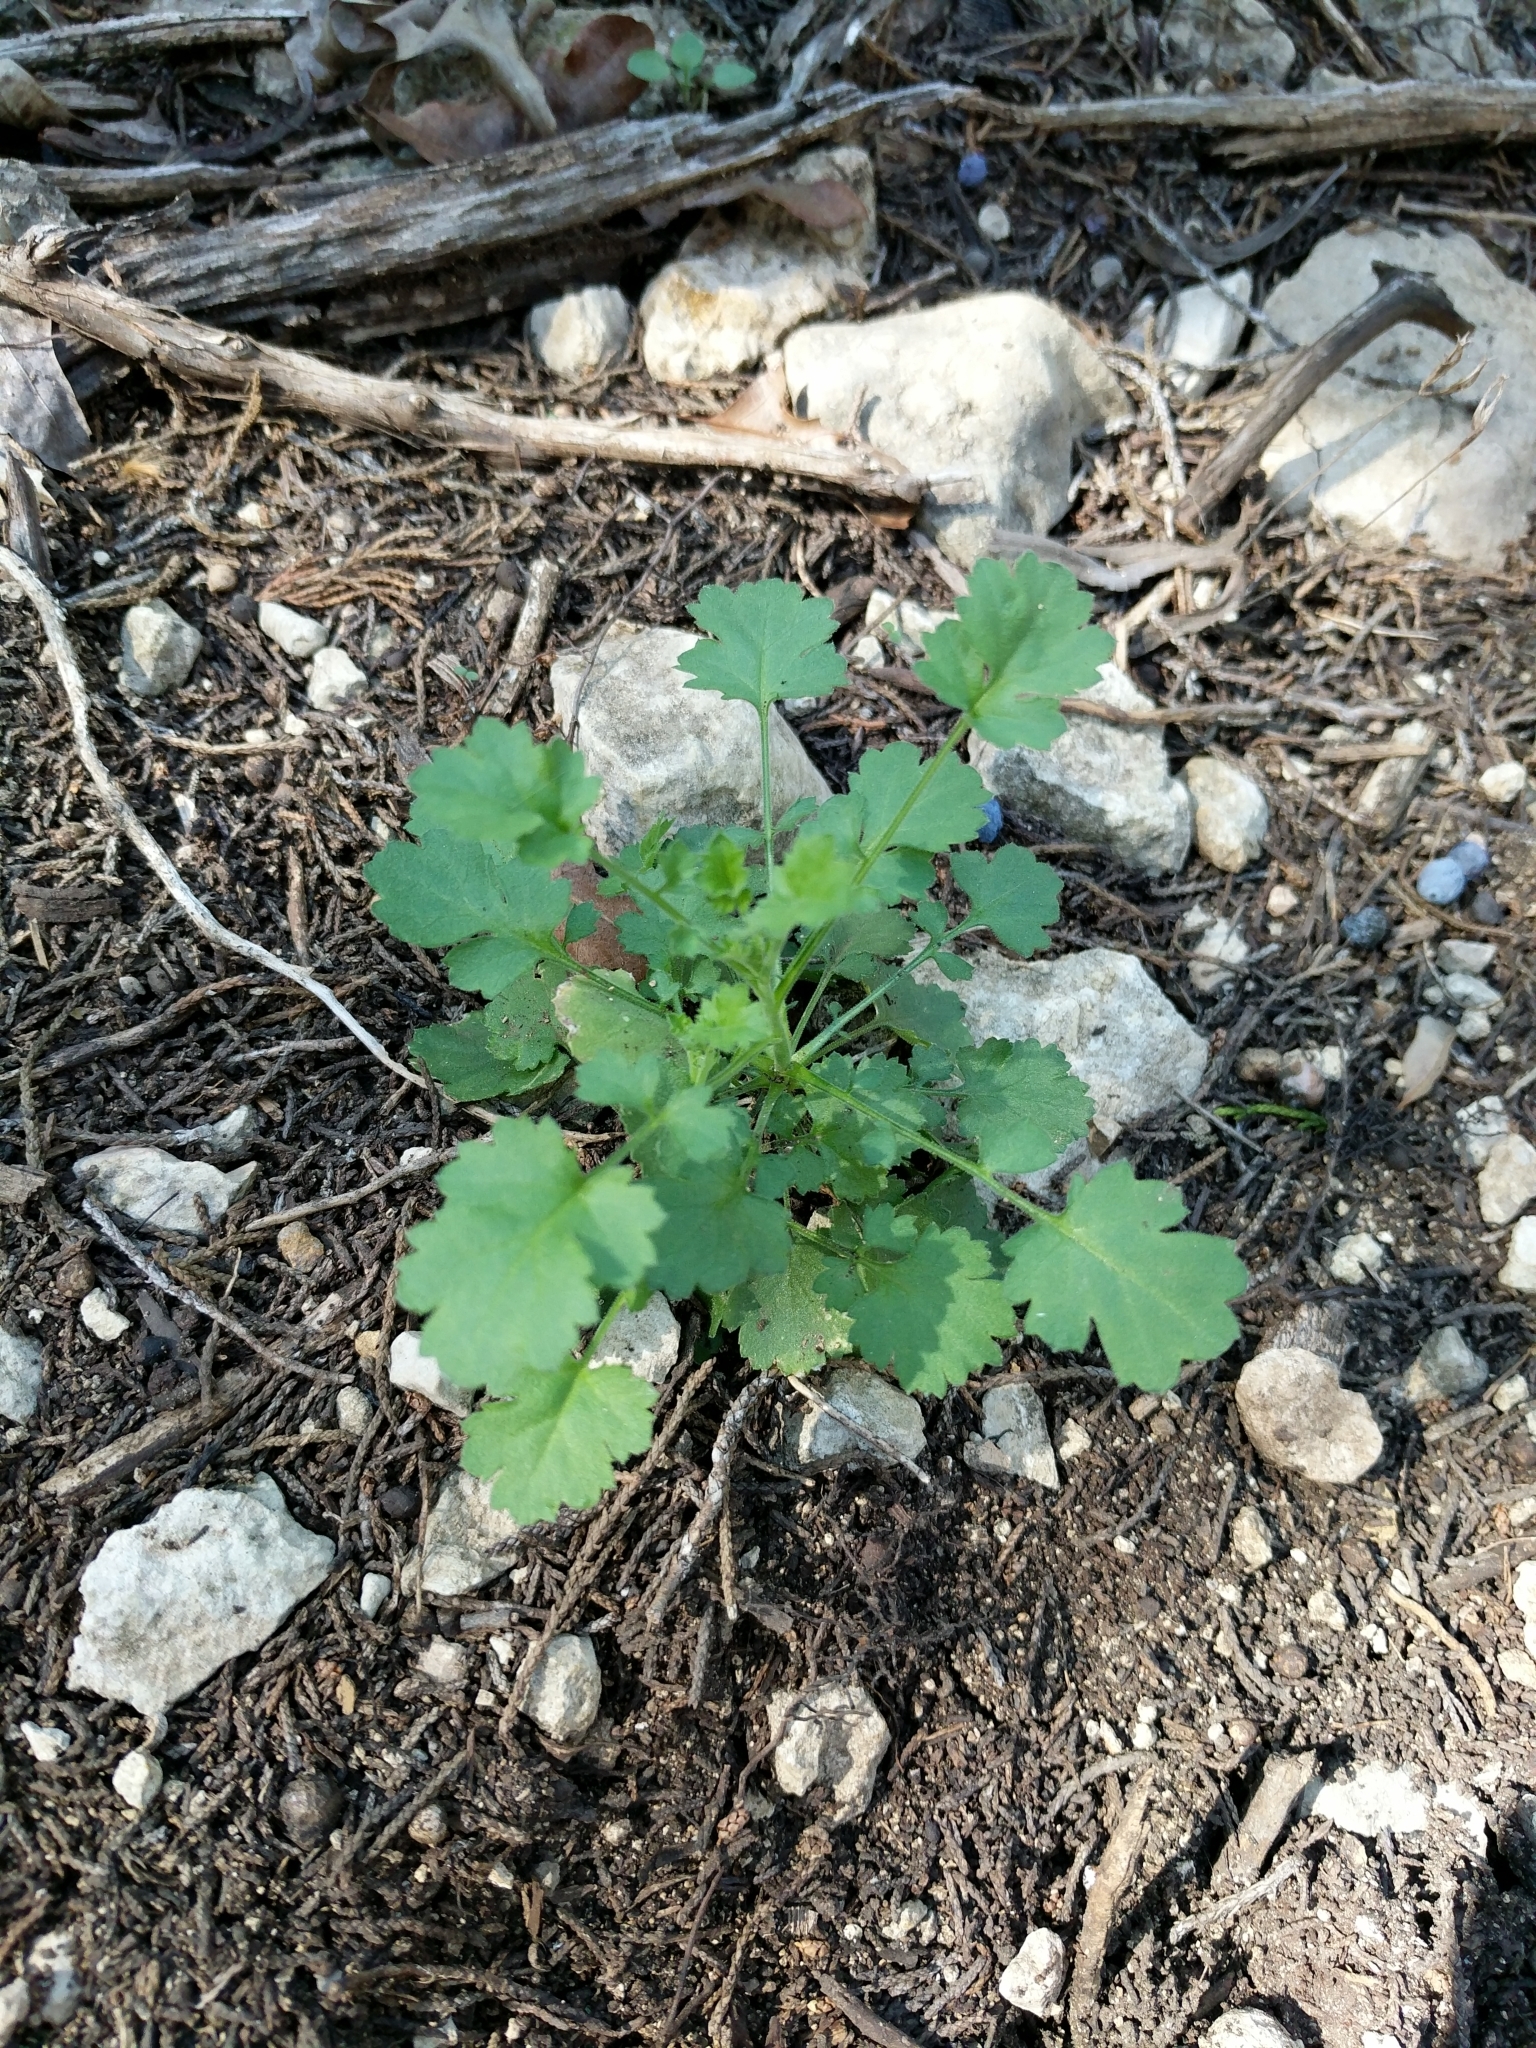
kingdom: Plantae
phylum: Tracheophyta
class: Magnoliopsida
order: Ericales
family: Polemoniaceae
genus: Giliastrum
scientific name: Giliastrum incisum
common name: Splitleaf gilia
